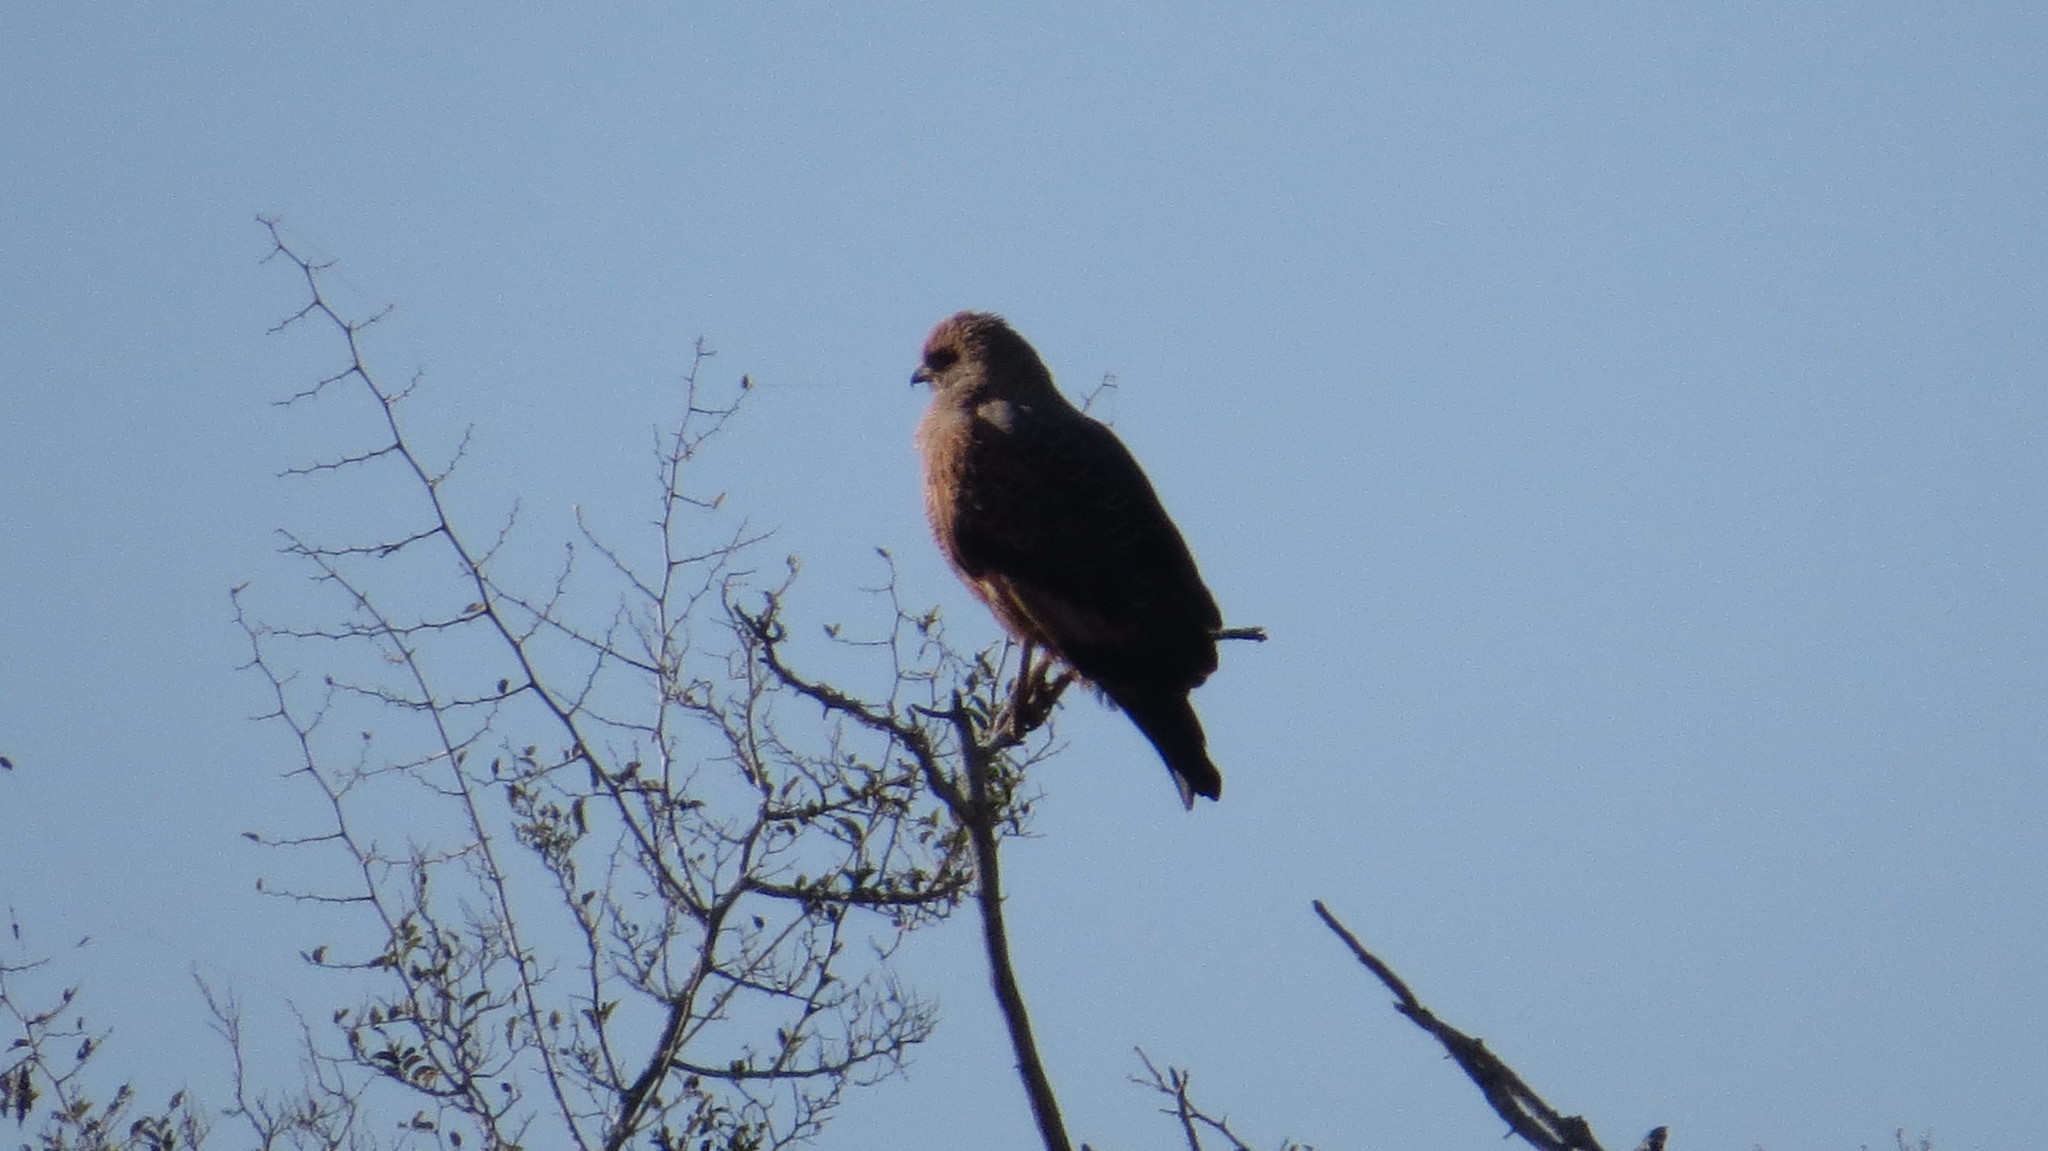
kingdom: Animalia
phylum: Chordata
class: Aves
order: Accipitriformes
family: Accipitridae
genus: Buteogallus
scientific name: Buteogallus meridionalis
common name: Savanna hawk
